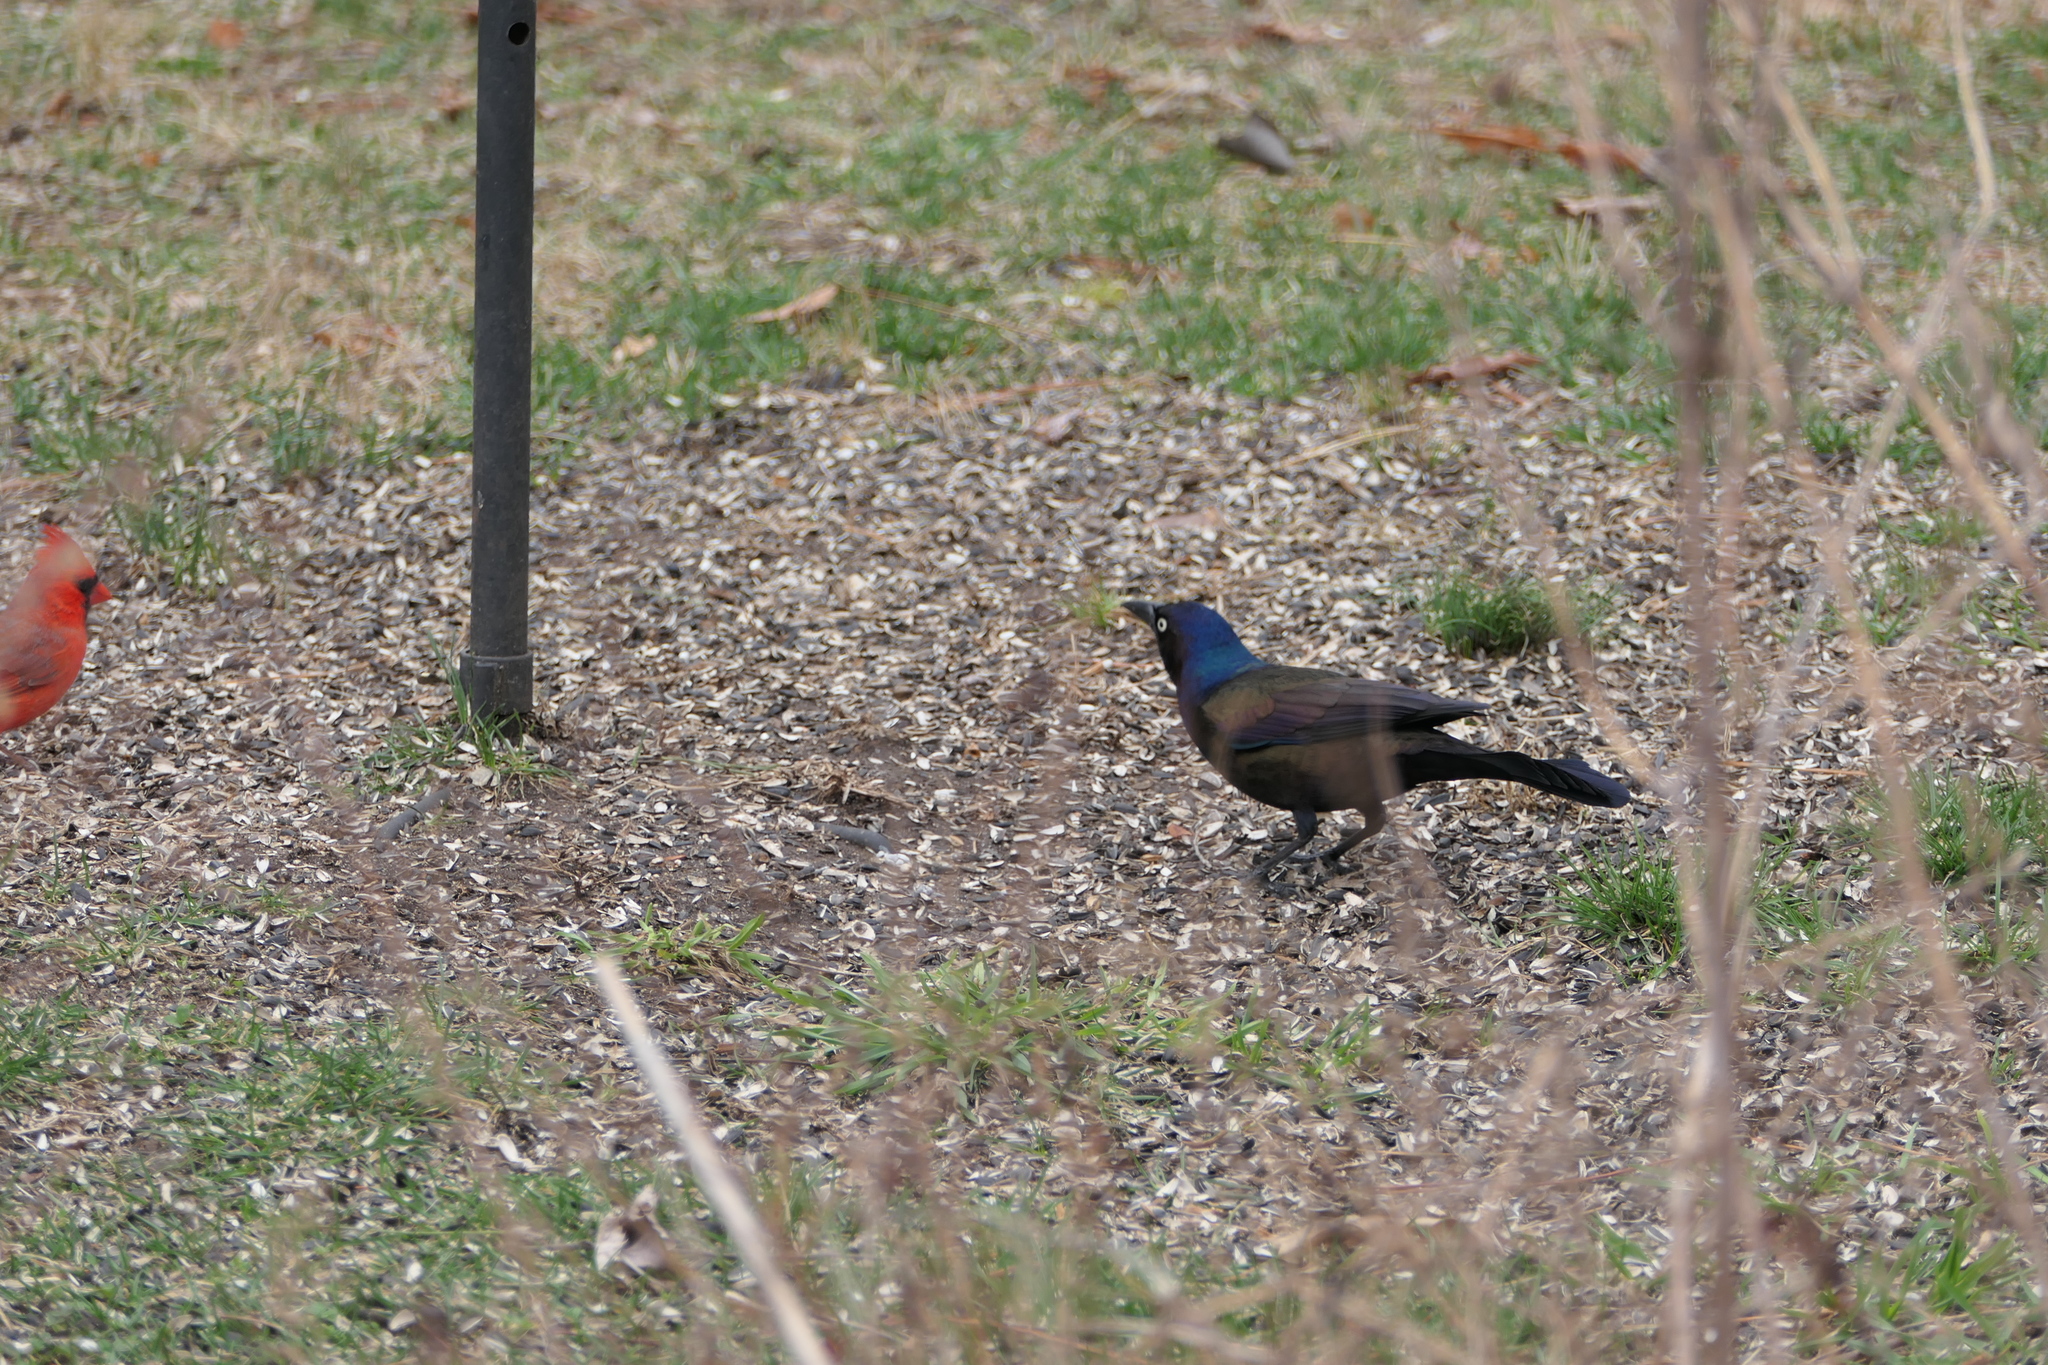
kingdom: Animalia
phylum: Chordata
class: Aves
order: Passeriformes
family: Icteridae
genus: Quiscalus
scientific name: Quiscalus quiscula
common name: Common grackle
